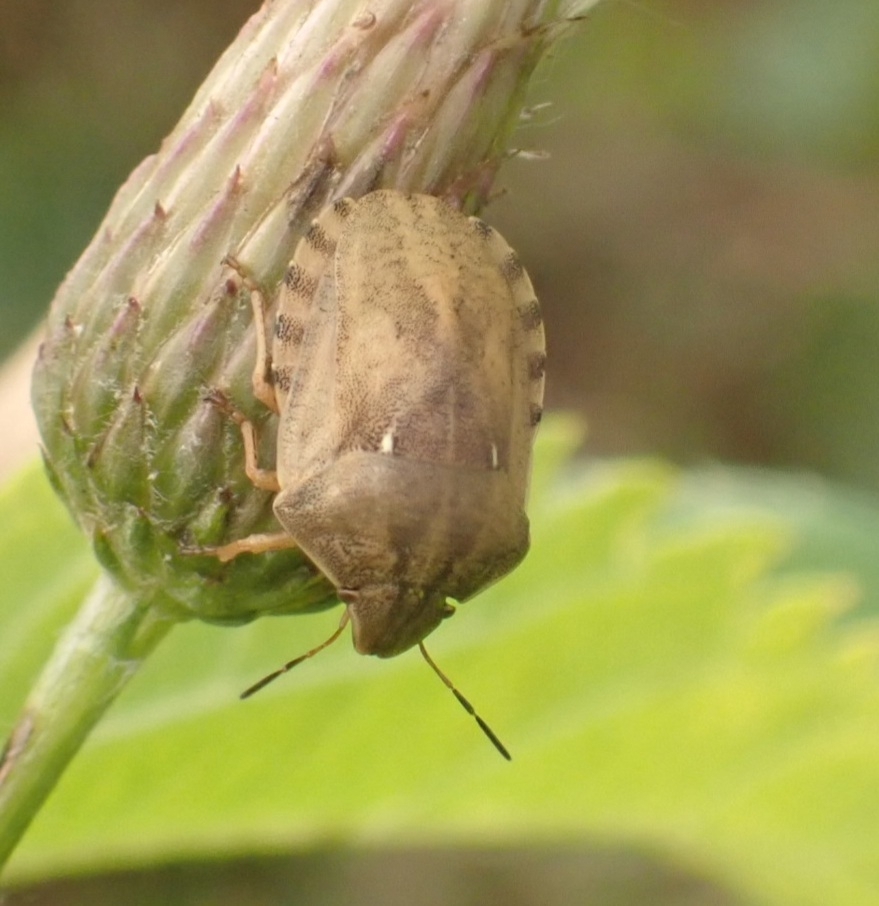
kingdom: Animalia
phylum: Arthropoda
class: Insecta
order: Hemiptera
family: Scutelleridae
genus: Eurygaster
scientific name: Eurygaster testudinaria
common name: Tortoise bug
